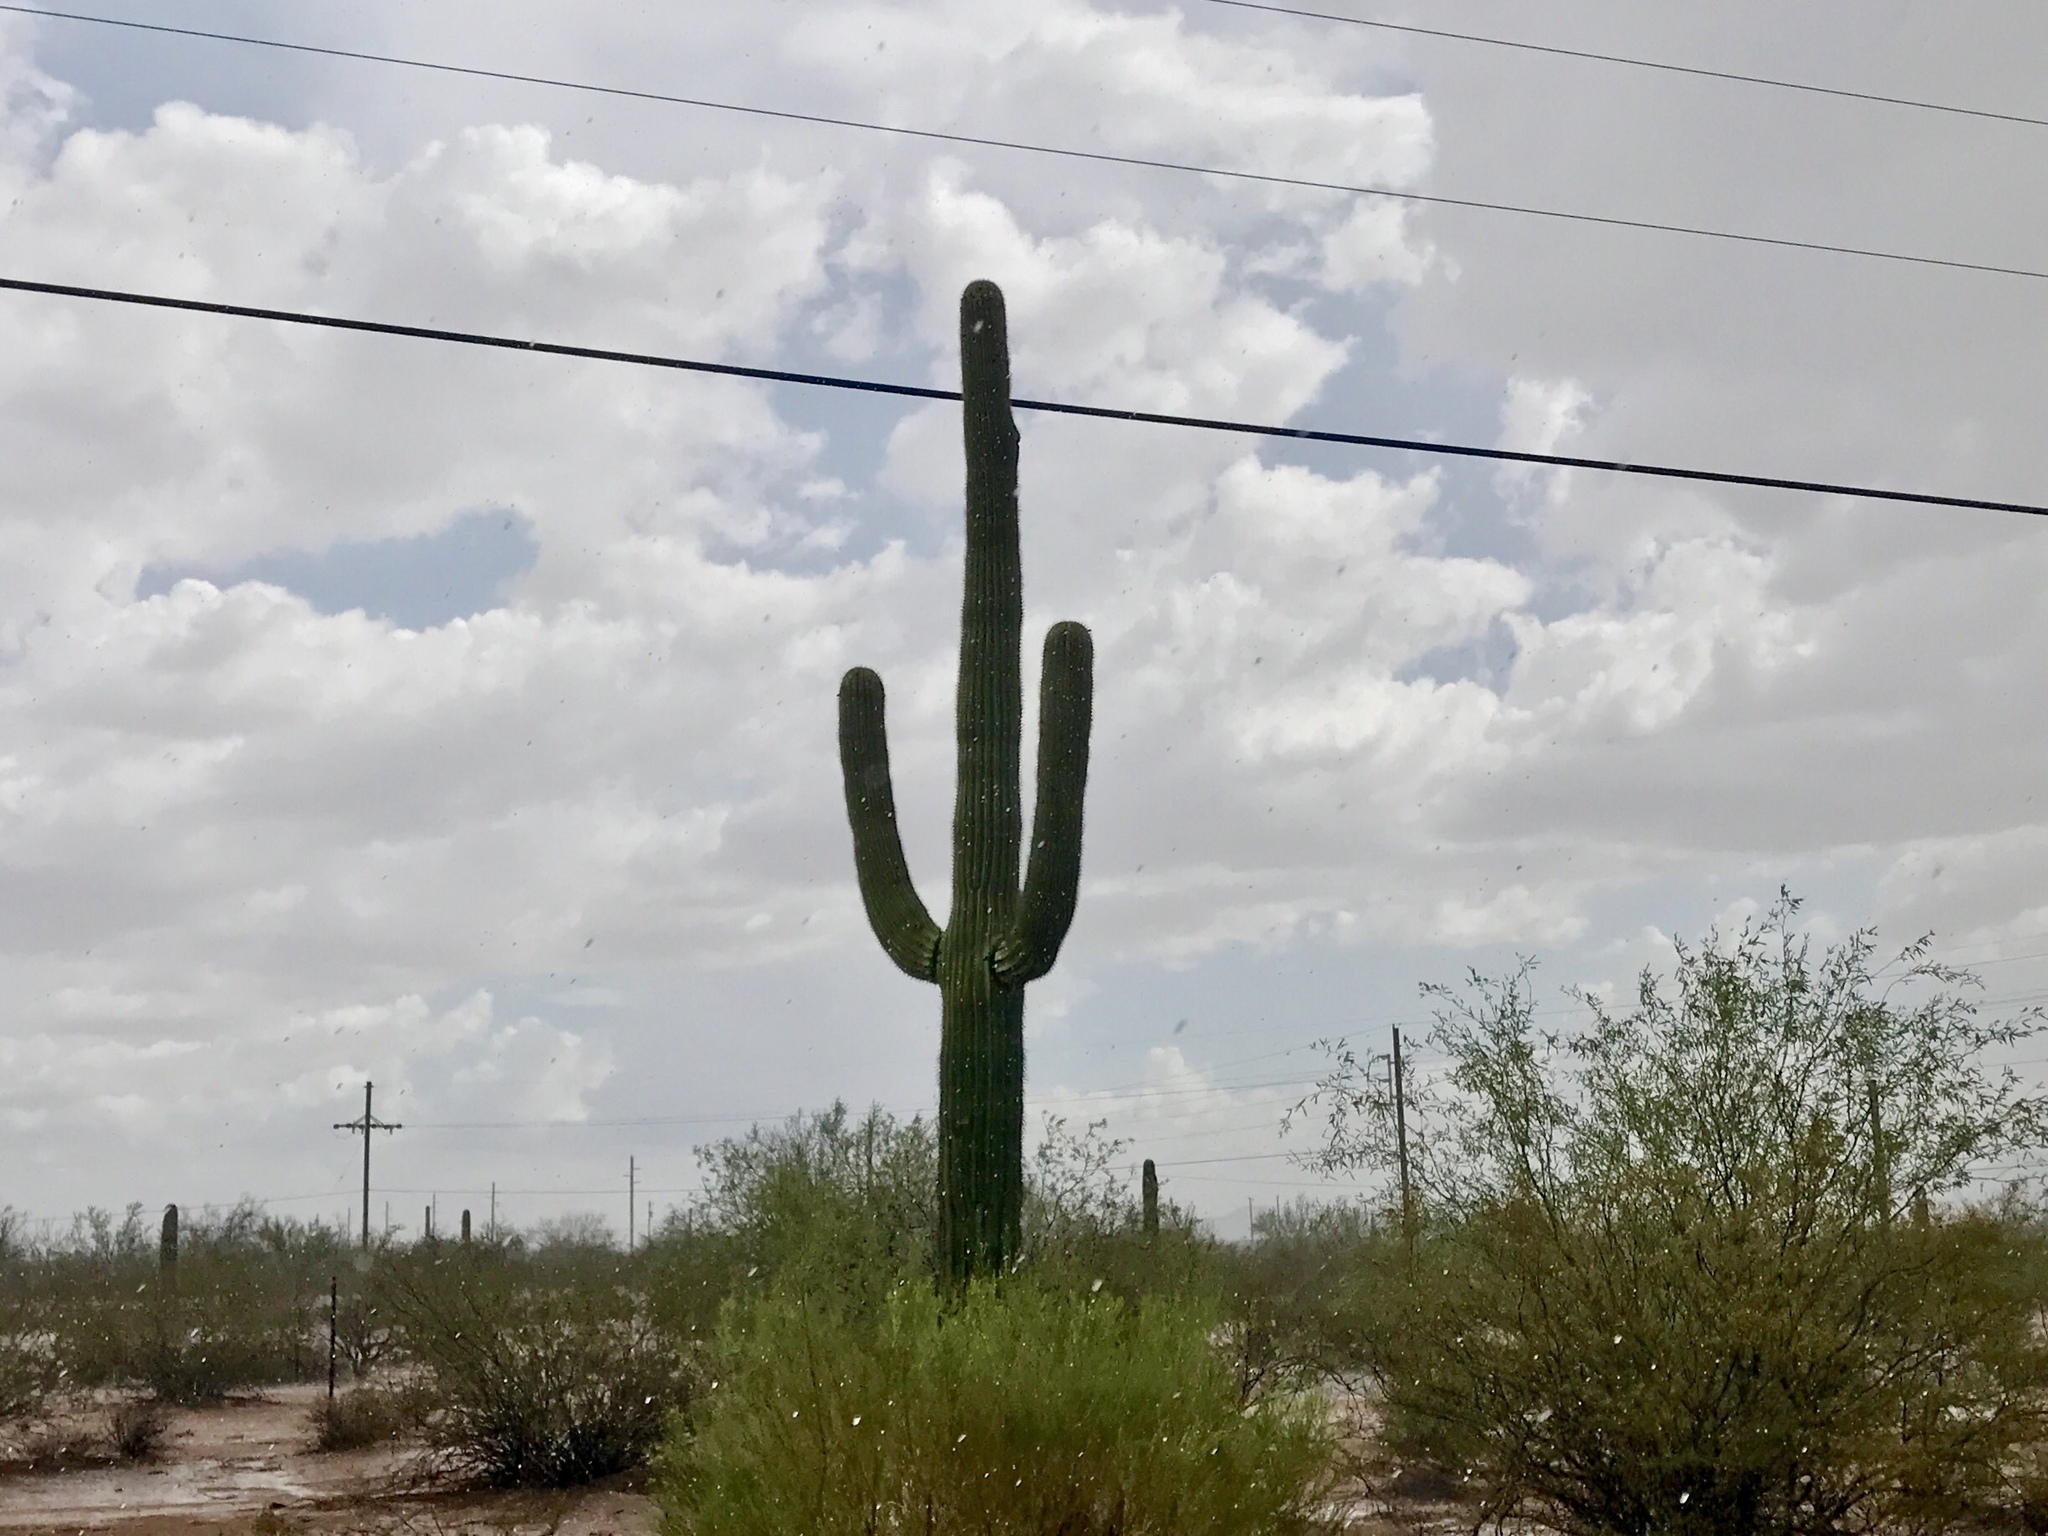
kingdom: Plantae
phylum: Tracheophyta
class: Magnoliopsida
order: Caryophyllales
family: Cactaceae
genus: Carnegiea
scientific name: Carnegiea gigantea
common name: Saguaro
